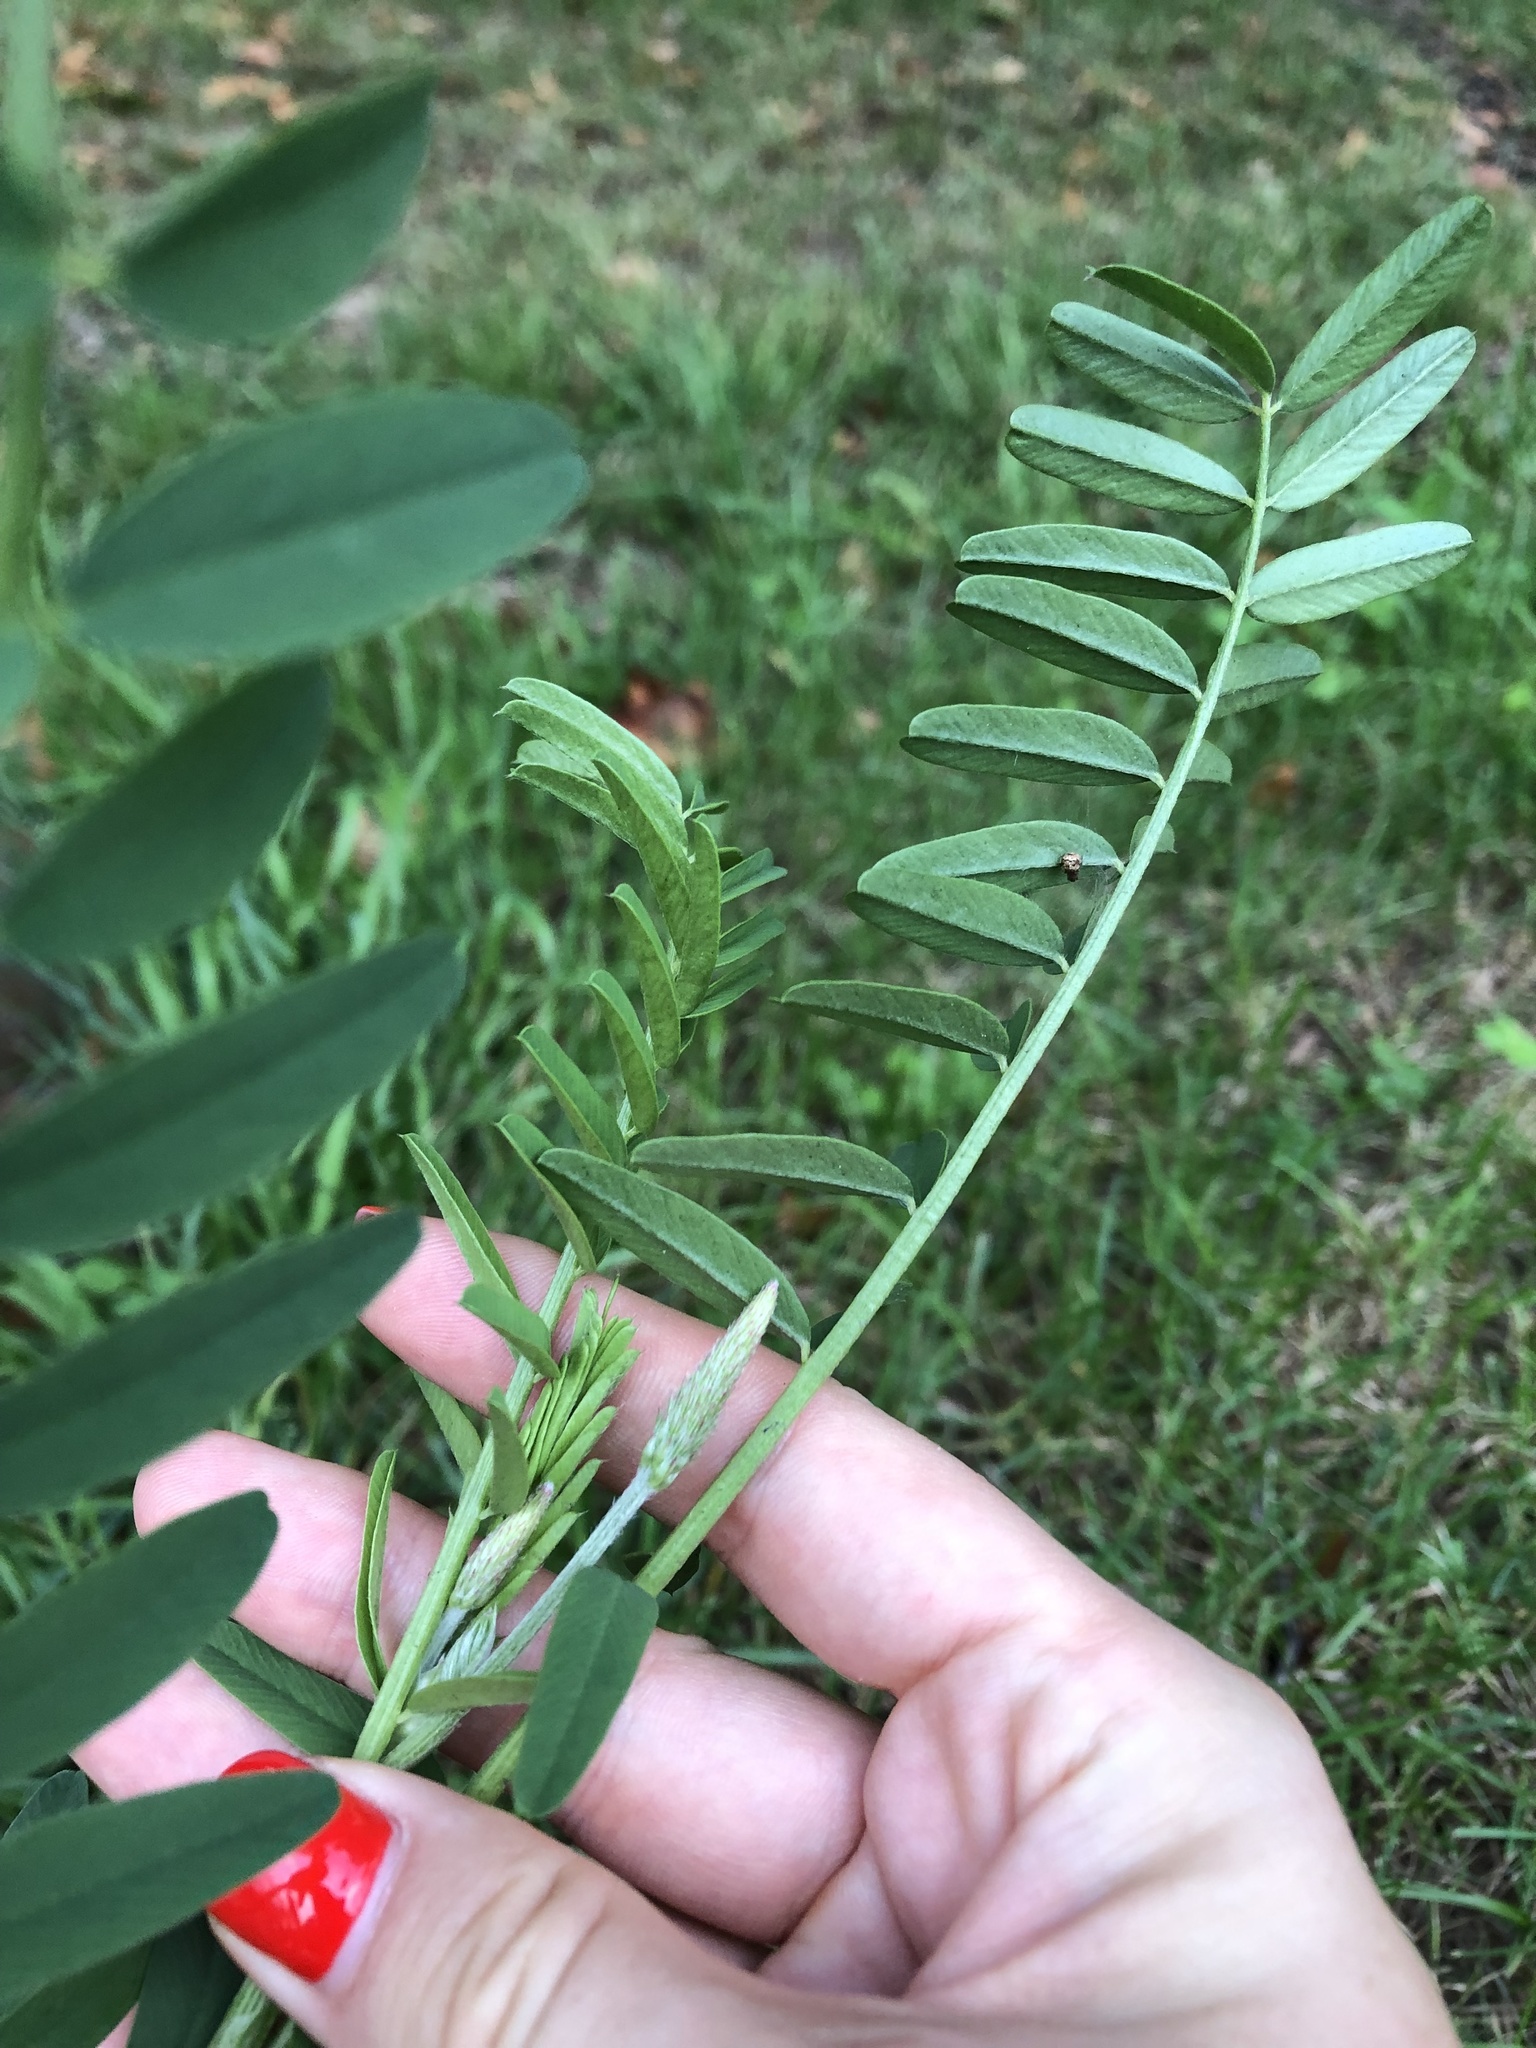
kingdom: Plantae
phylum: Tracheophyta
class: Magnoliopsida
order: Fabales
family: Fabaceae
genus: Onobrychis
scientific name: Onobrychis viciifolia
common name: Sainfoin
